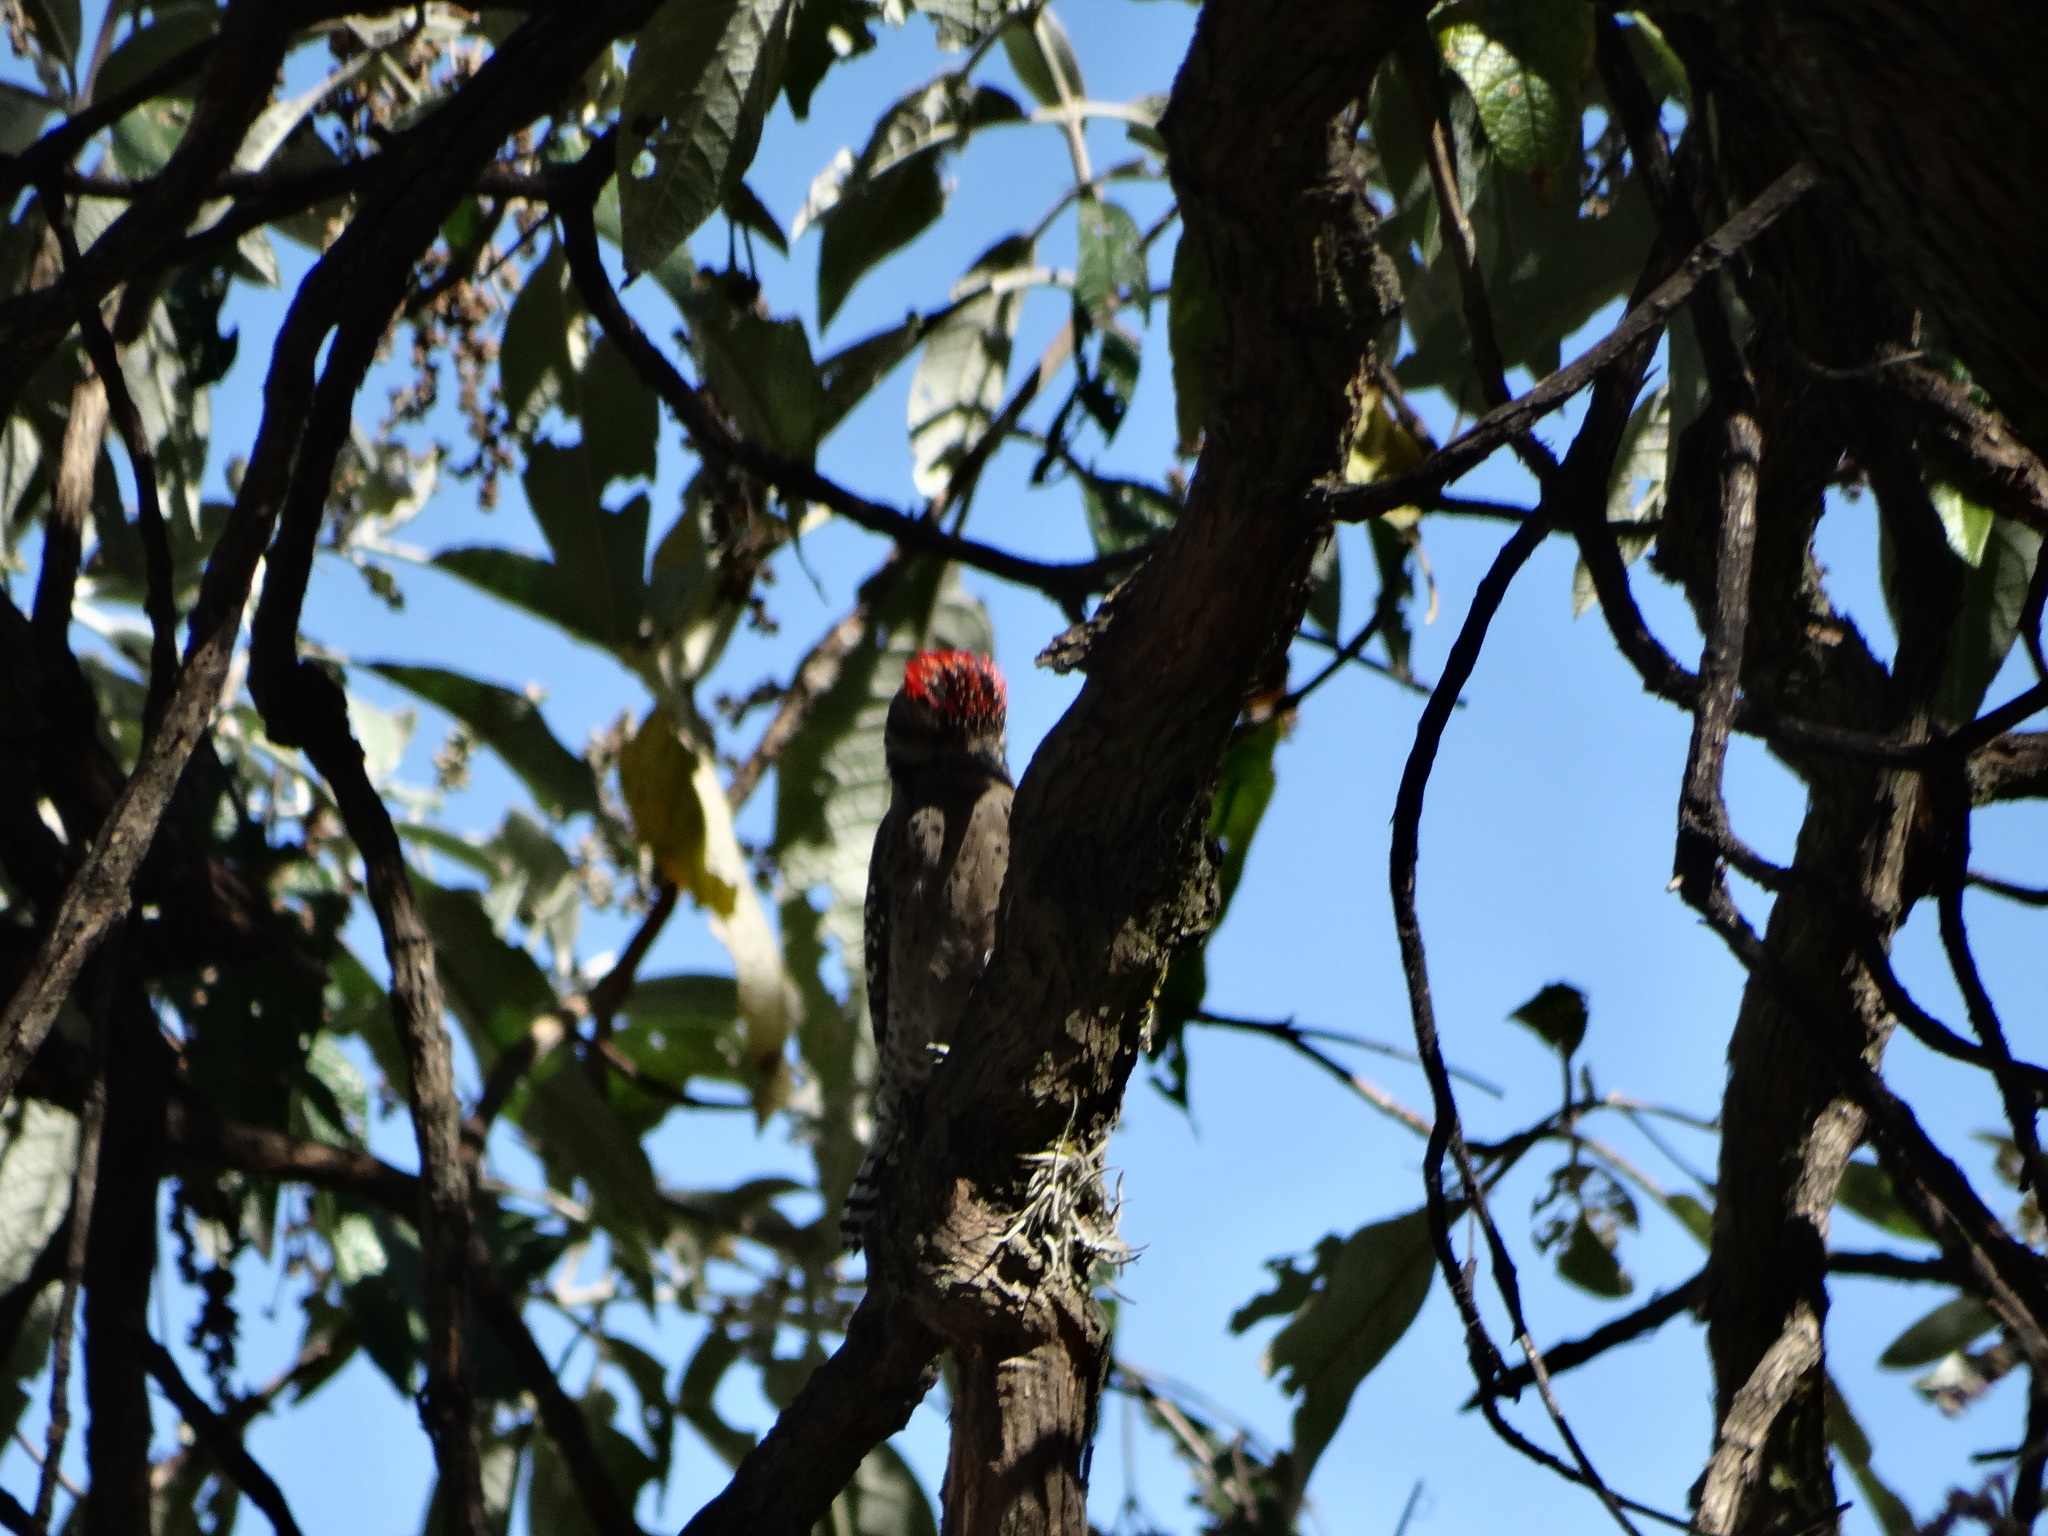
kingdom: Animalia
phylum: Chordata
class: Aves
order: Piciformes
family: Picidae
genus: Dryobates
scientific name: Dryobates scalaris
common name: Ladder-backed woodpecker
